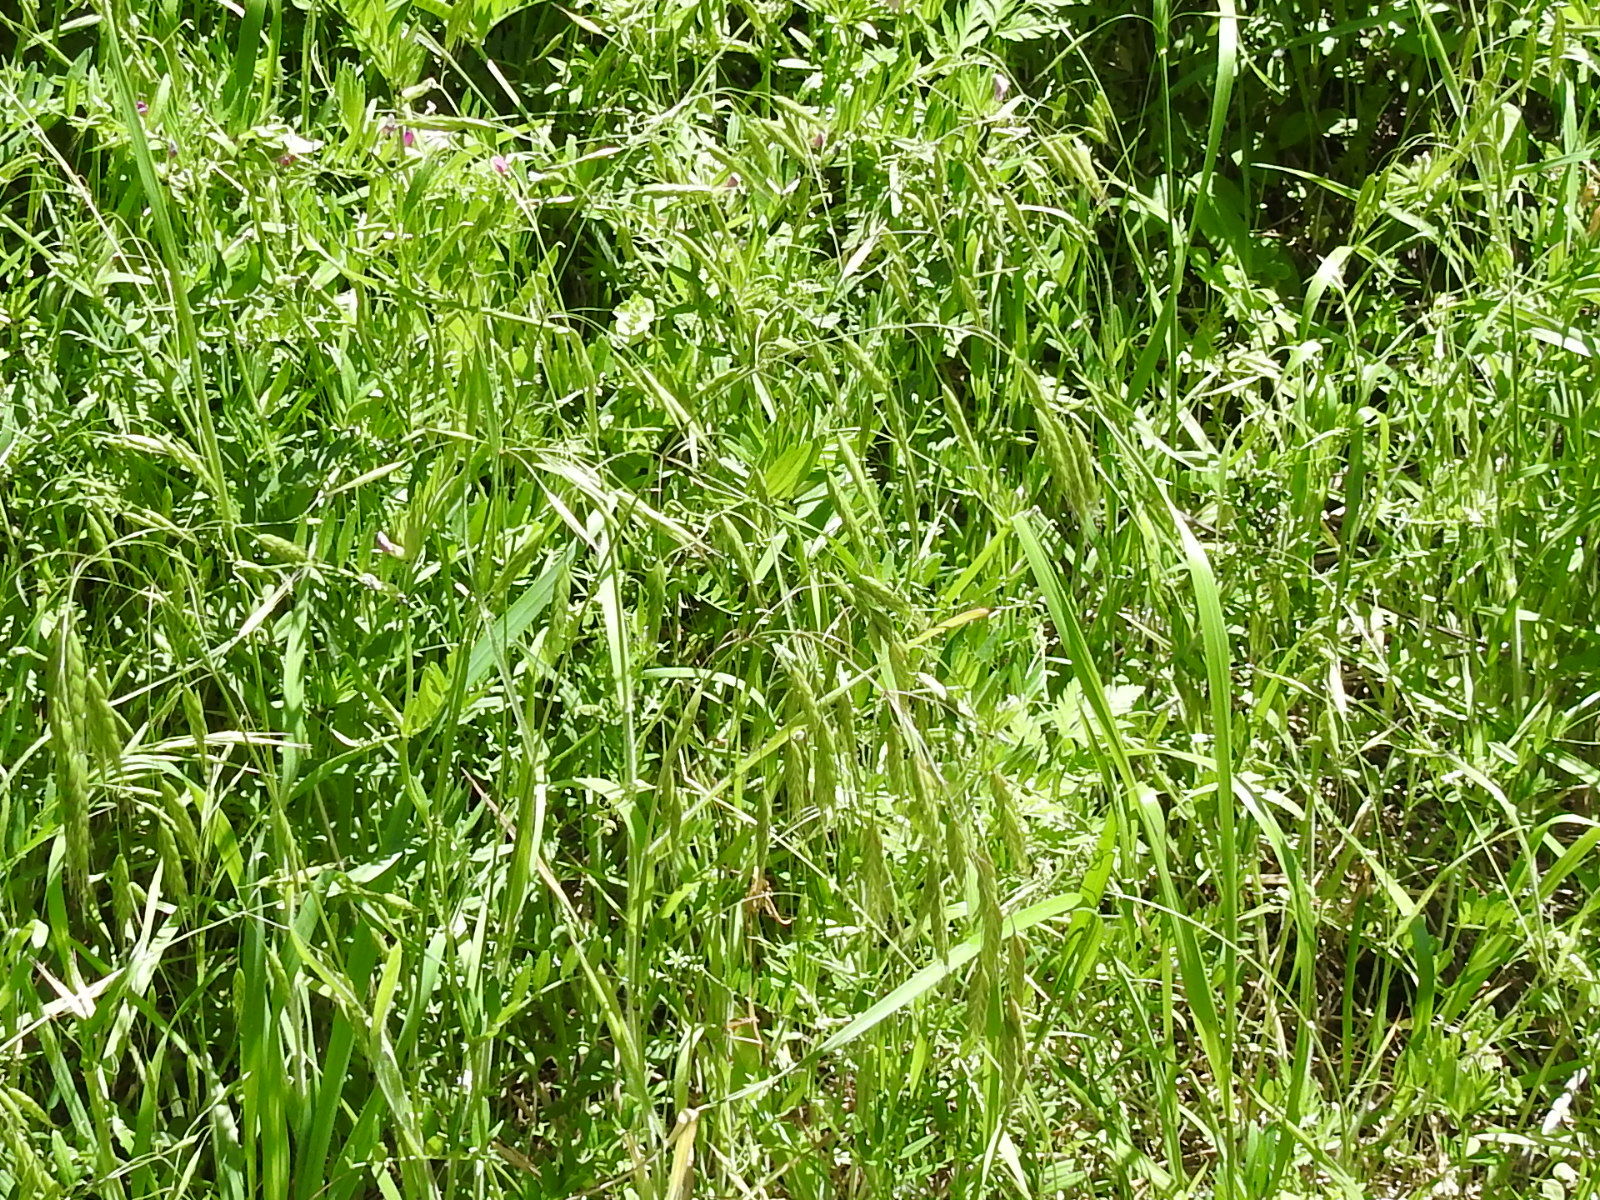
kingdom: Plantae
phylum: Tracheophyta
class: Liliopsida
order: Poales
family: Poaceae
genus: Bromus
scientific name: Bromus japonicus
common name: Japanese brome
